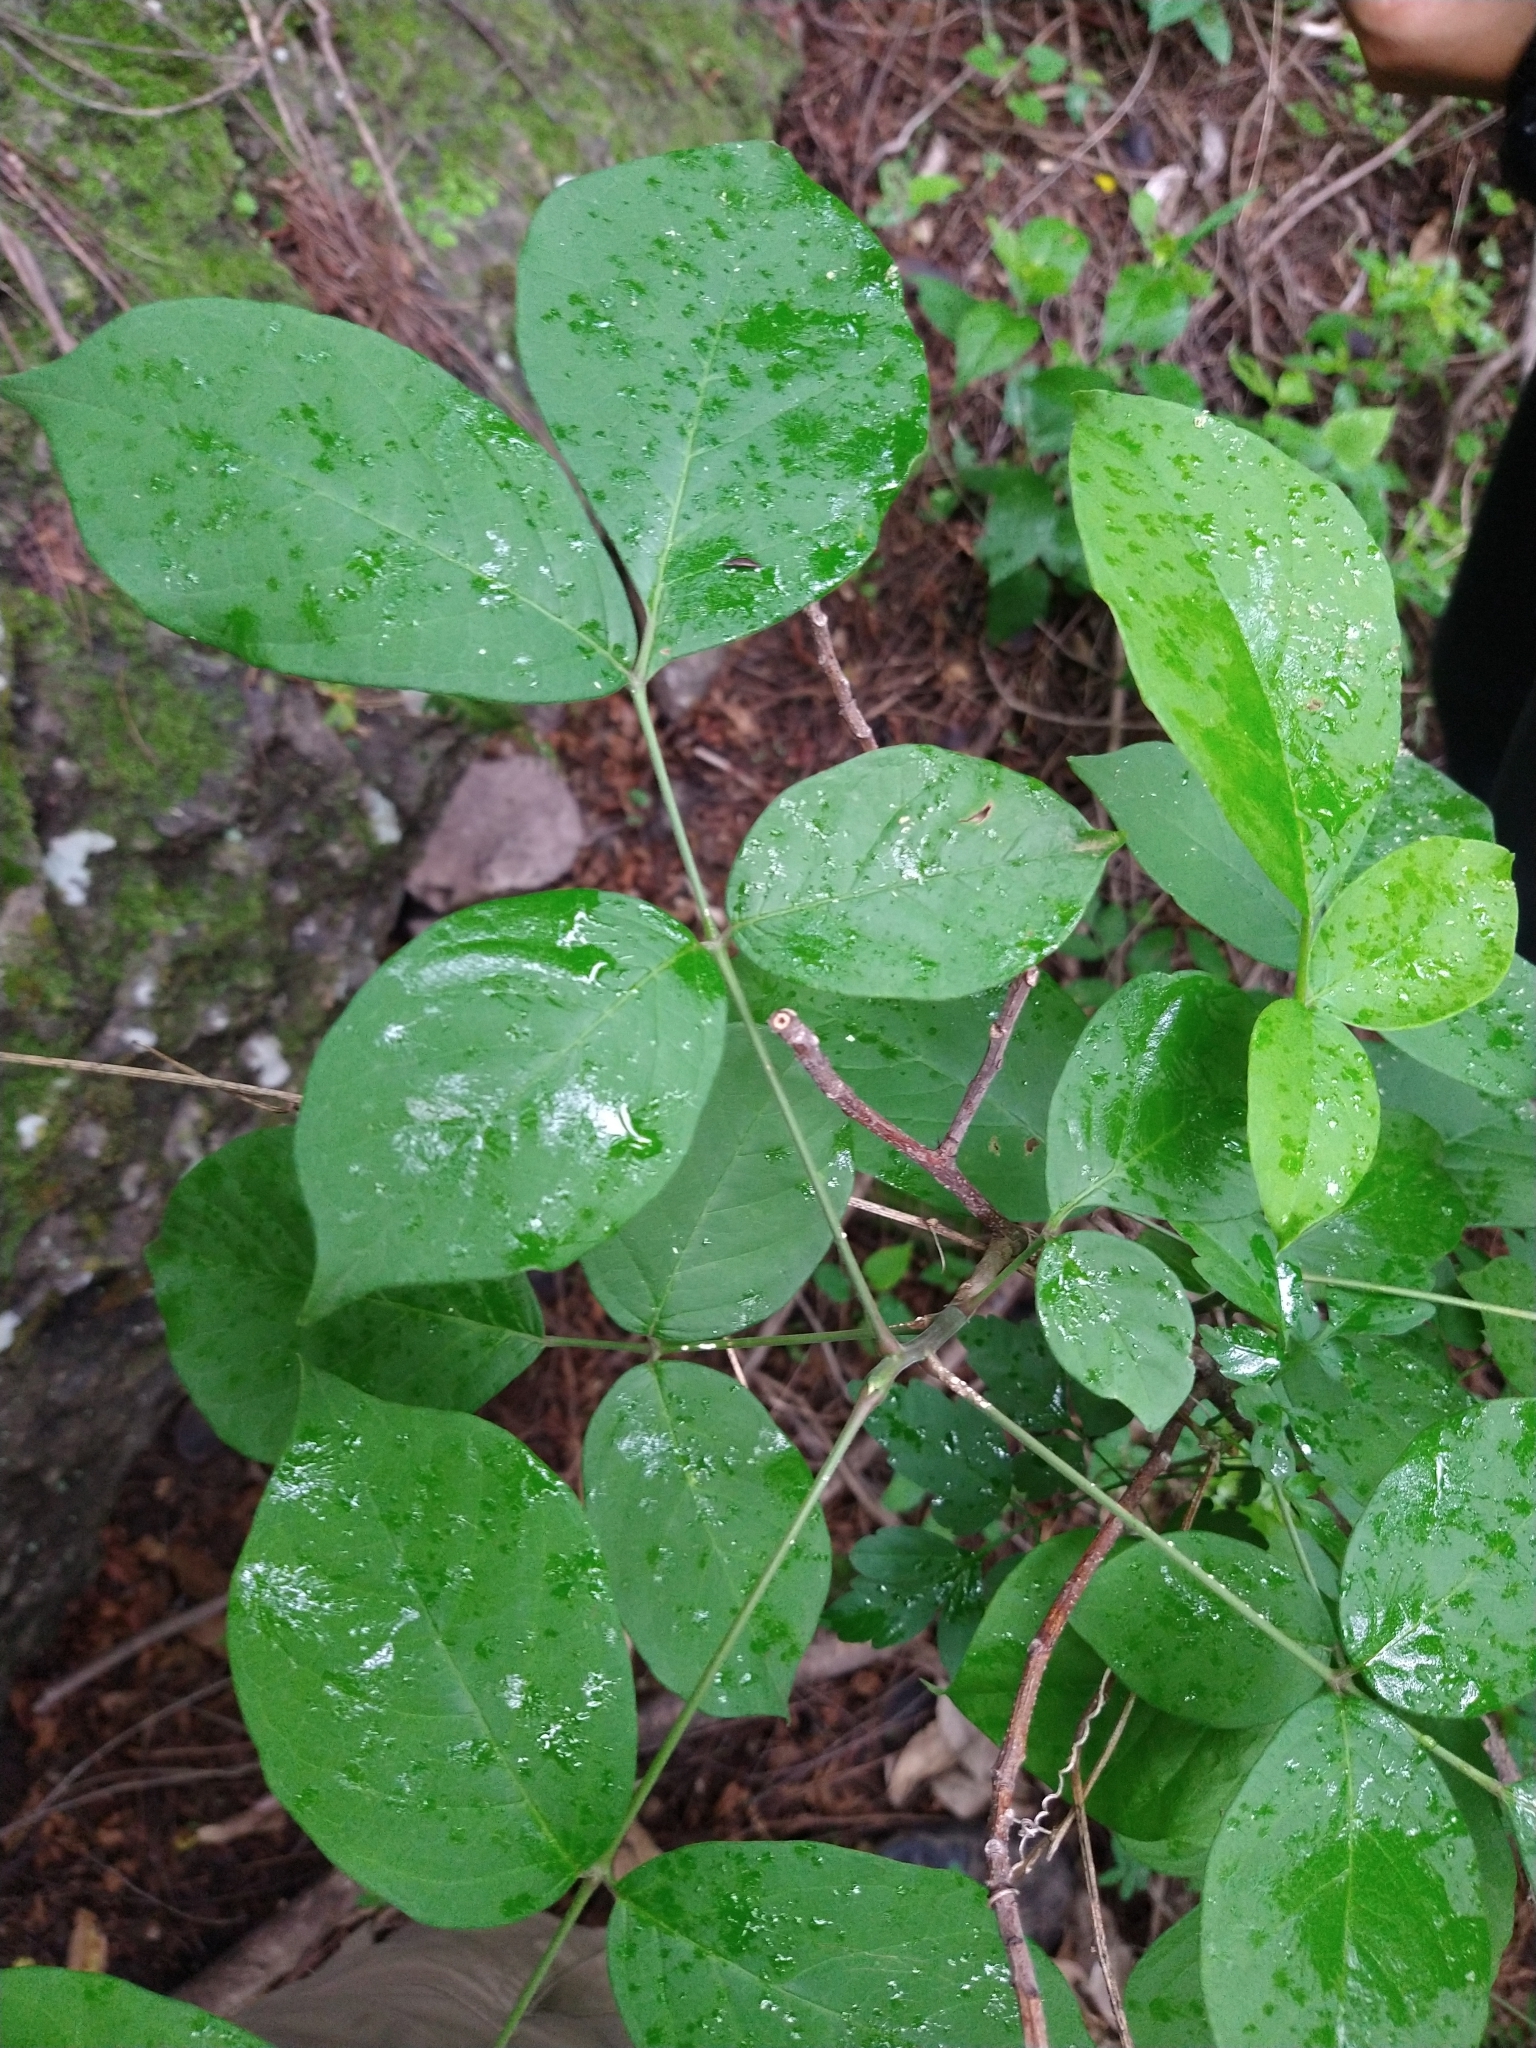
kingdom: Plantae
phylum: Tracheophyta
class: Magnoliopsida
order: Sapindales
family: Burseraceae
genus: Bursera
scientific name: Bursera grandifolia
